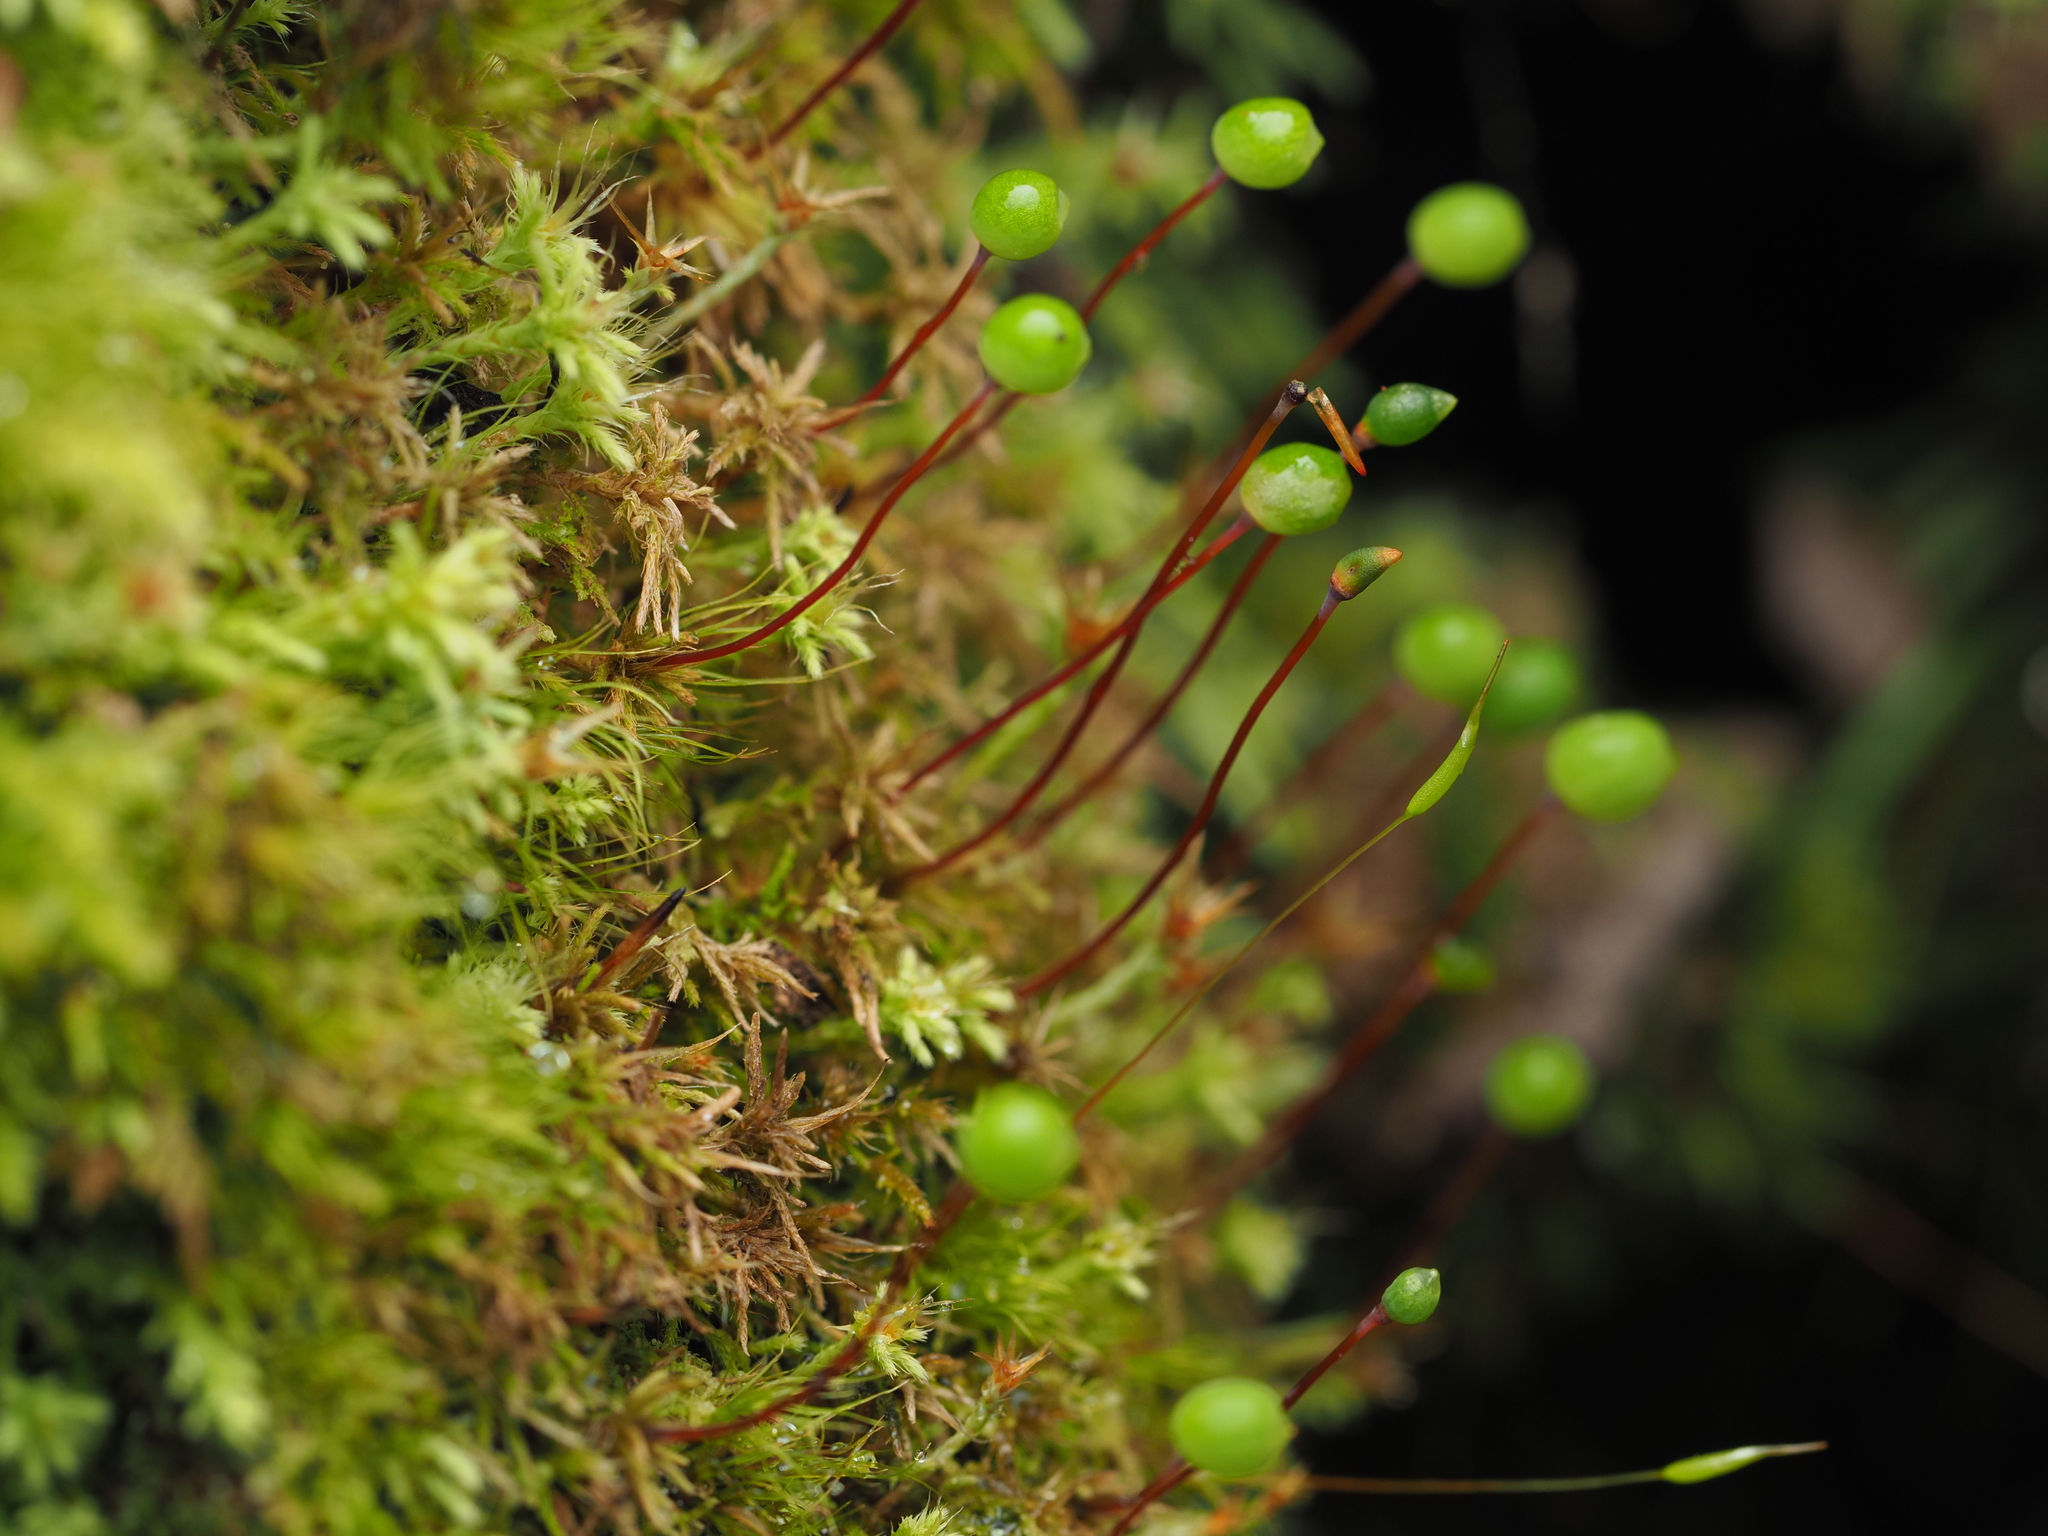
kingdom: Plantae
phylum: Bryophyta
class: Bryopsida
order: Bartramiales
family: Bartramiaceae
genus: Philonotis
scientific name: Philonotis scabrifolia
